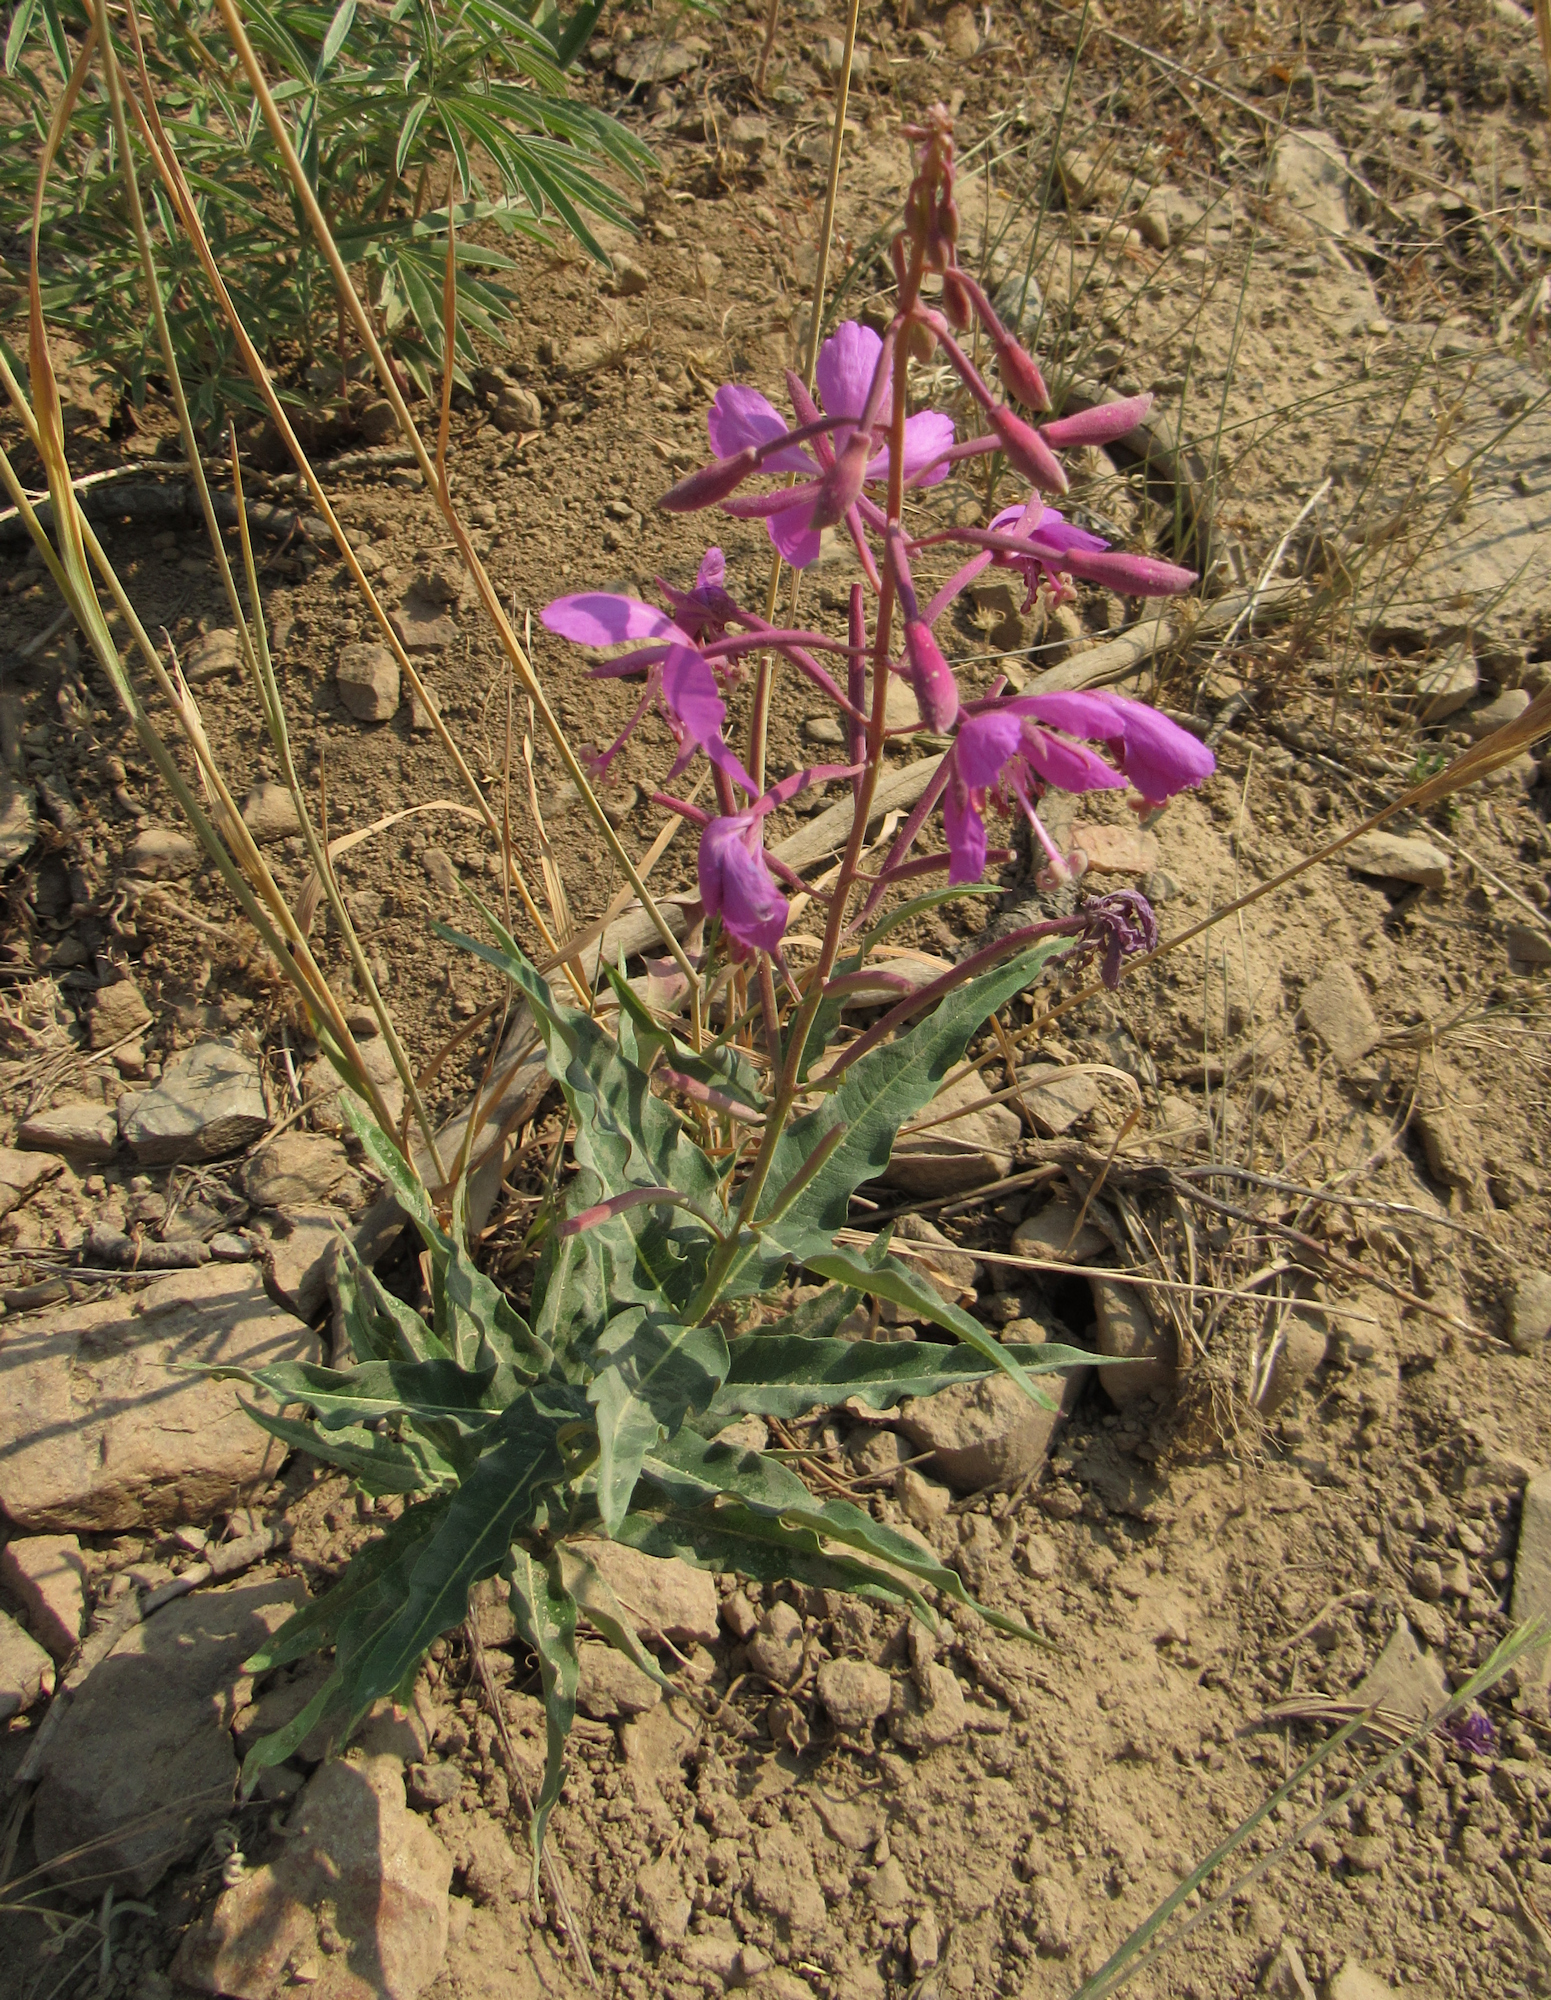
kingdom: Plantae
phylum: Tracheophyta
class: Magnoliopsida
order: Myrtales
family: Onagraceae
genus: Chamaenerion
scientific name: Chamaenerion angustifolium
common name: Fireweed
